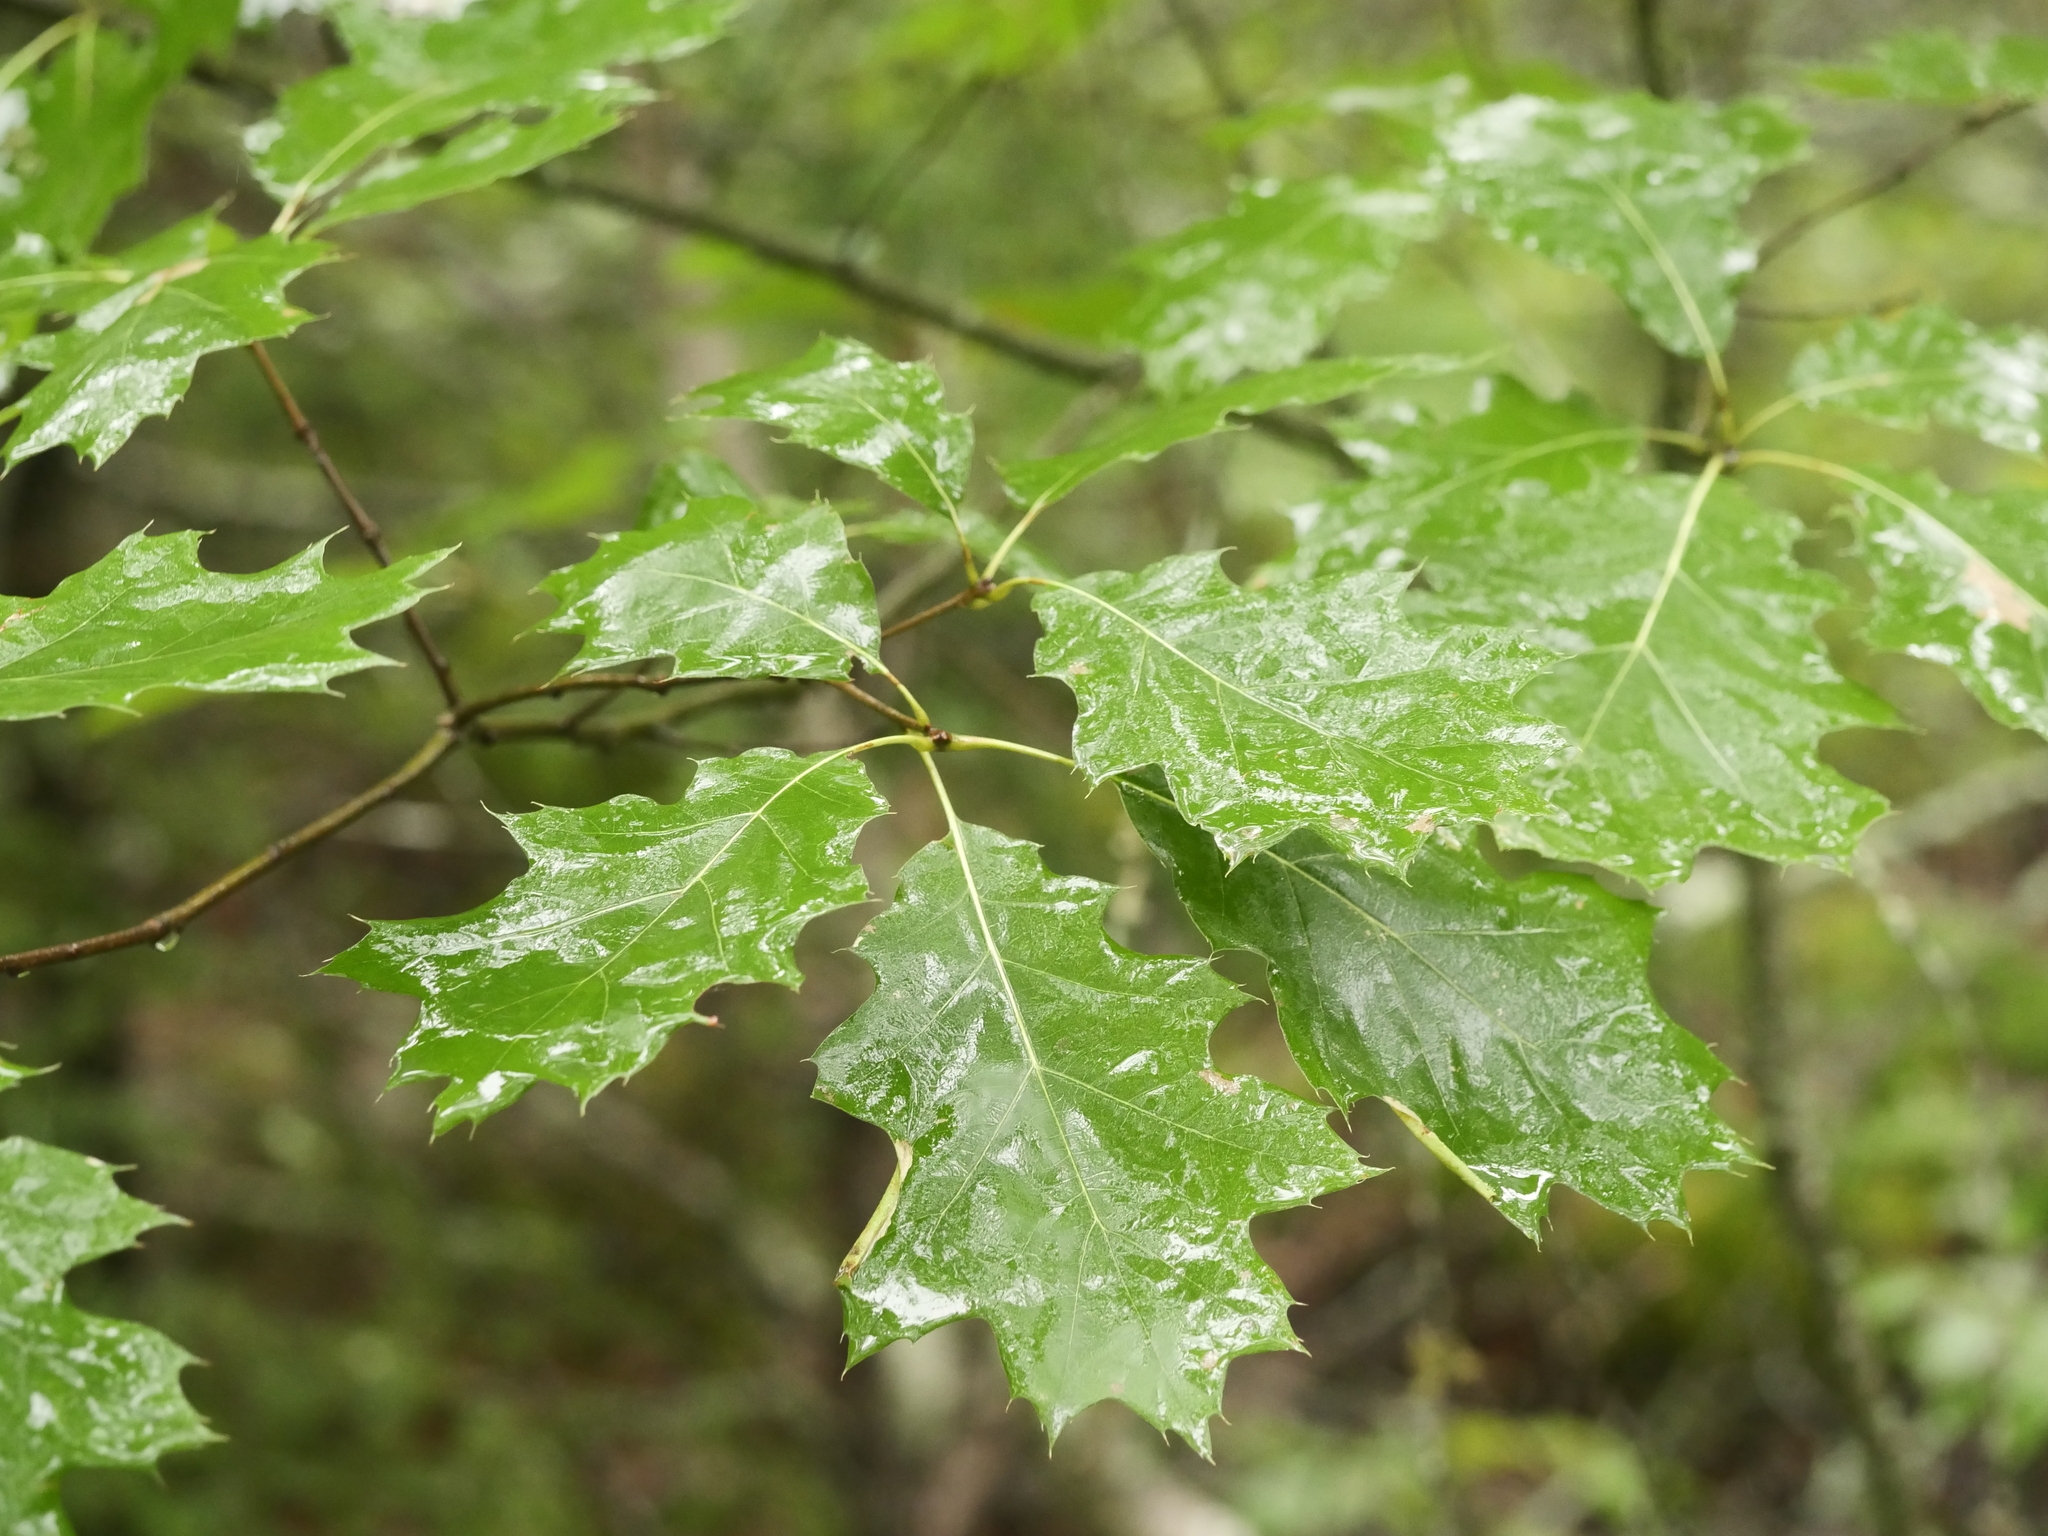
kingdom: Plantae
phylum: Tracheophyta
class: Magnoliopsida
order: Fagales
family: Fagaceae
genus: Quercus
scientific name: Quercus rubra
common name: Red oak
